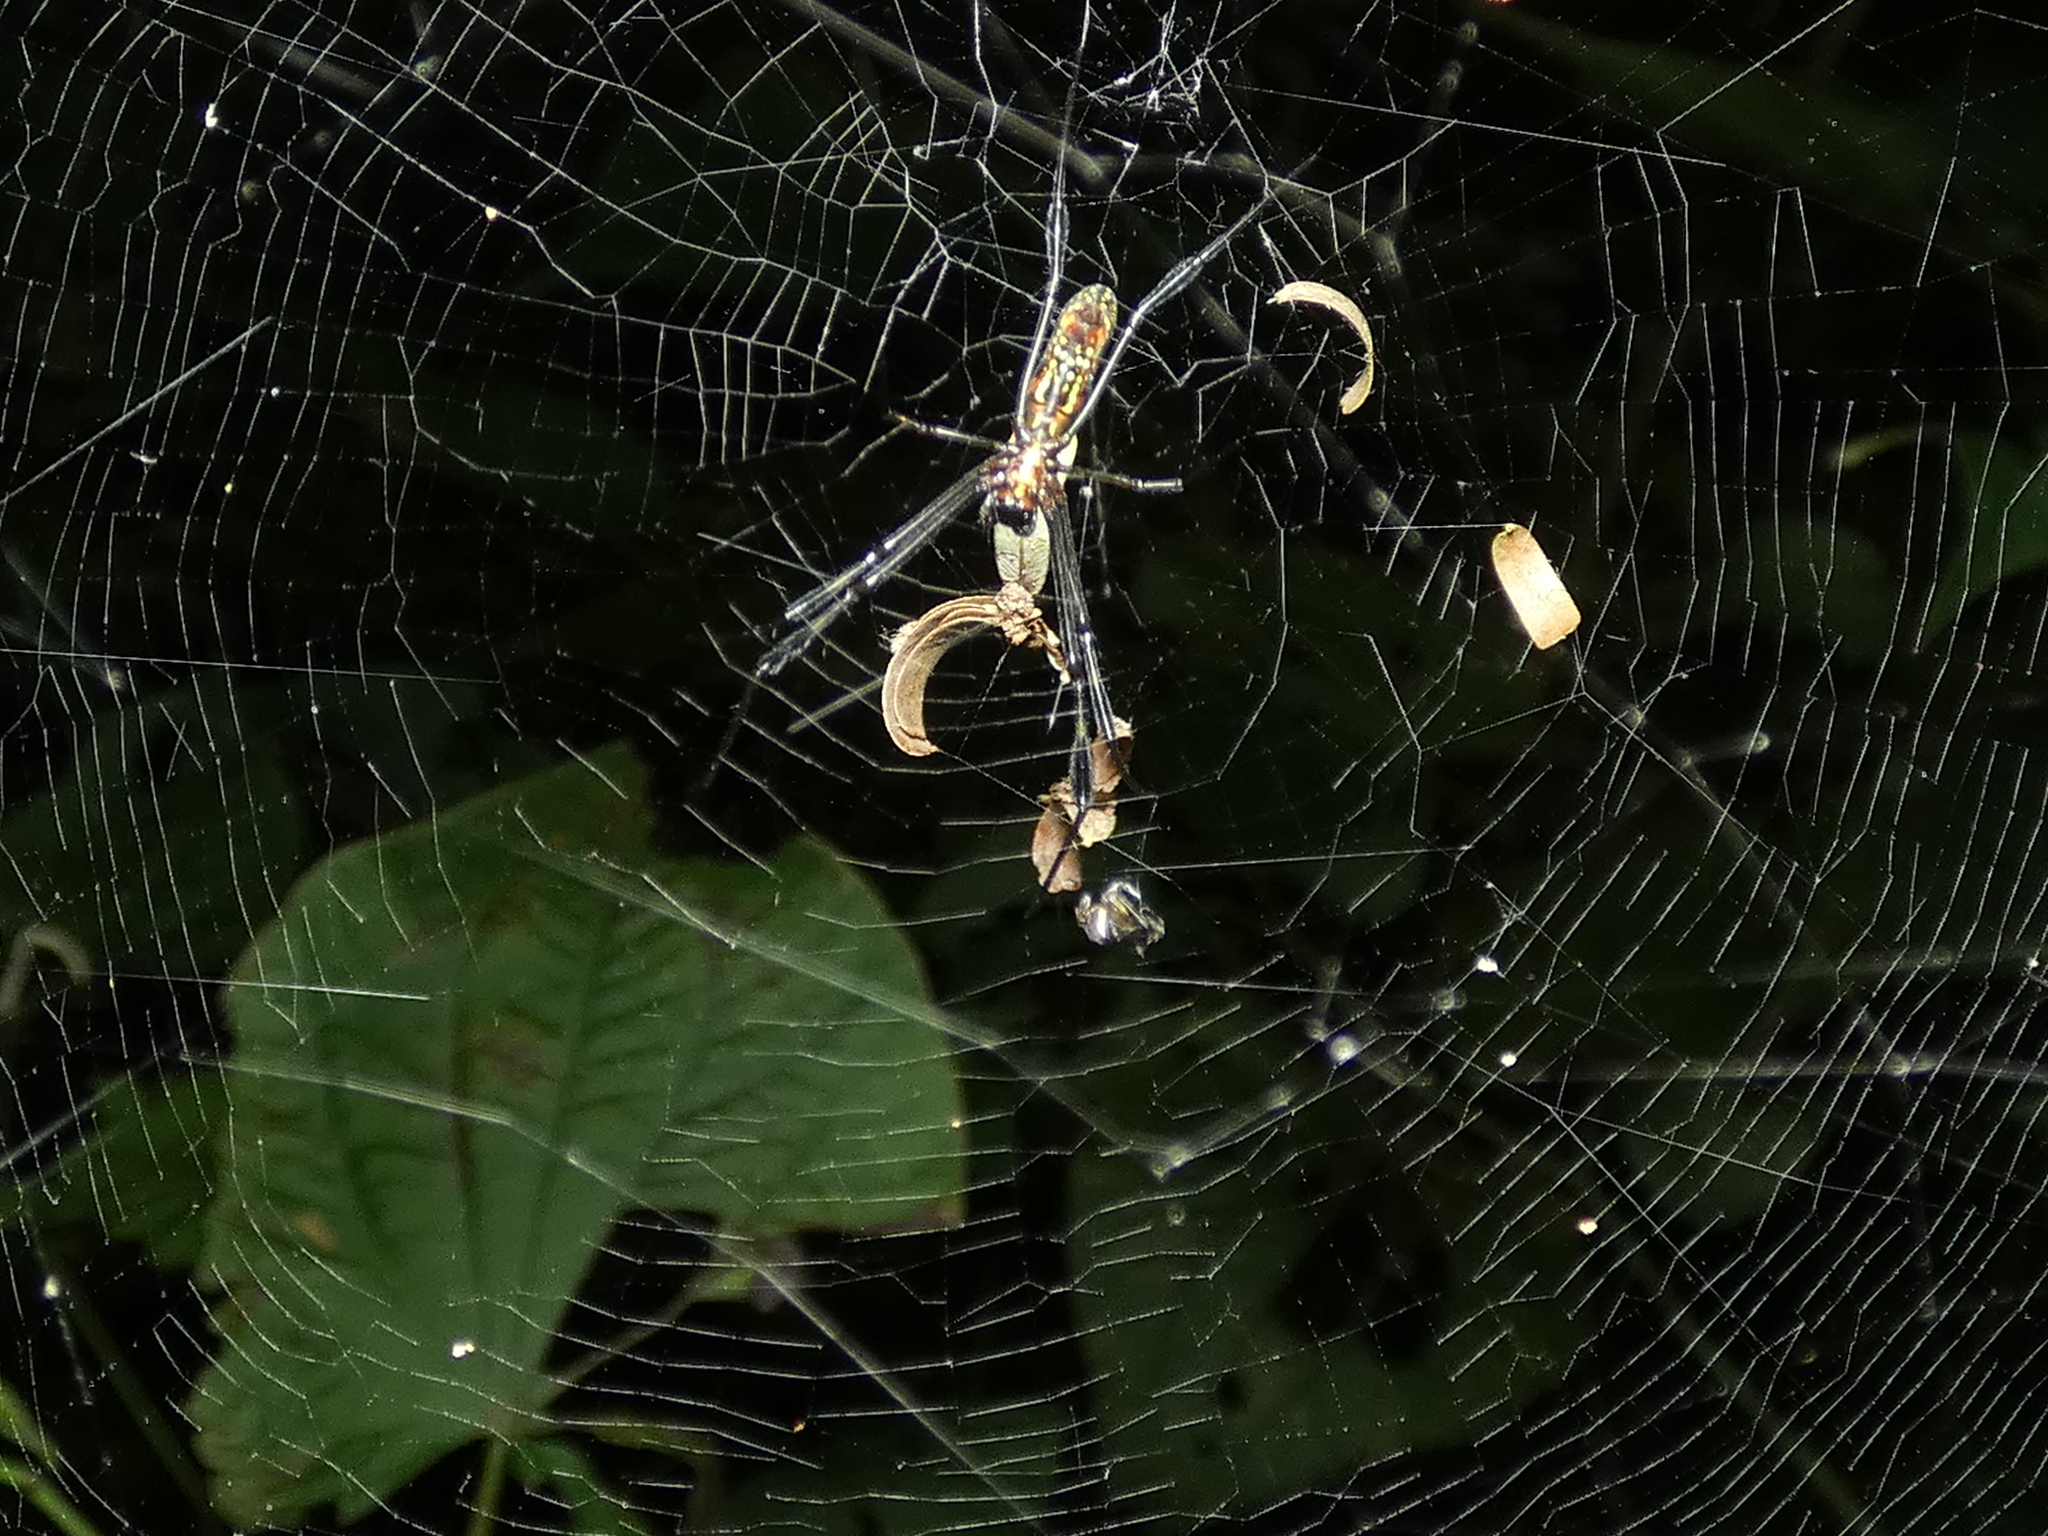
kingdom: Animalia
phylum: Arthropoda
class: Arachnida
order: Araneae
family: Araneidae
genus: Trichonephila
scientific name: Trichonephila clavipes
